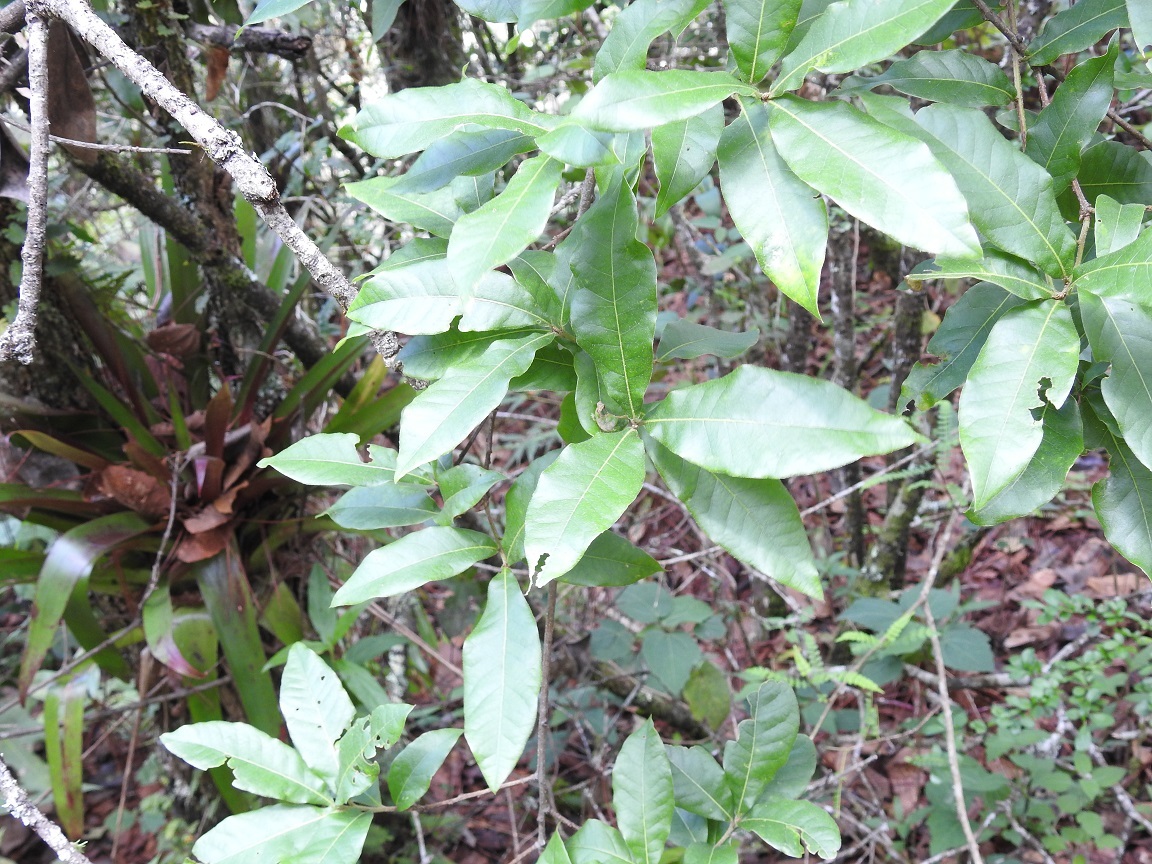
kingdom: Plantae
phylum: Tracheophyta
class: Magnoliopsida
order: Fagales
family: Fagaceae
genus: Quercus
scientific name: Quercus laurina
